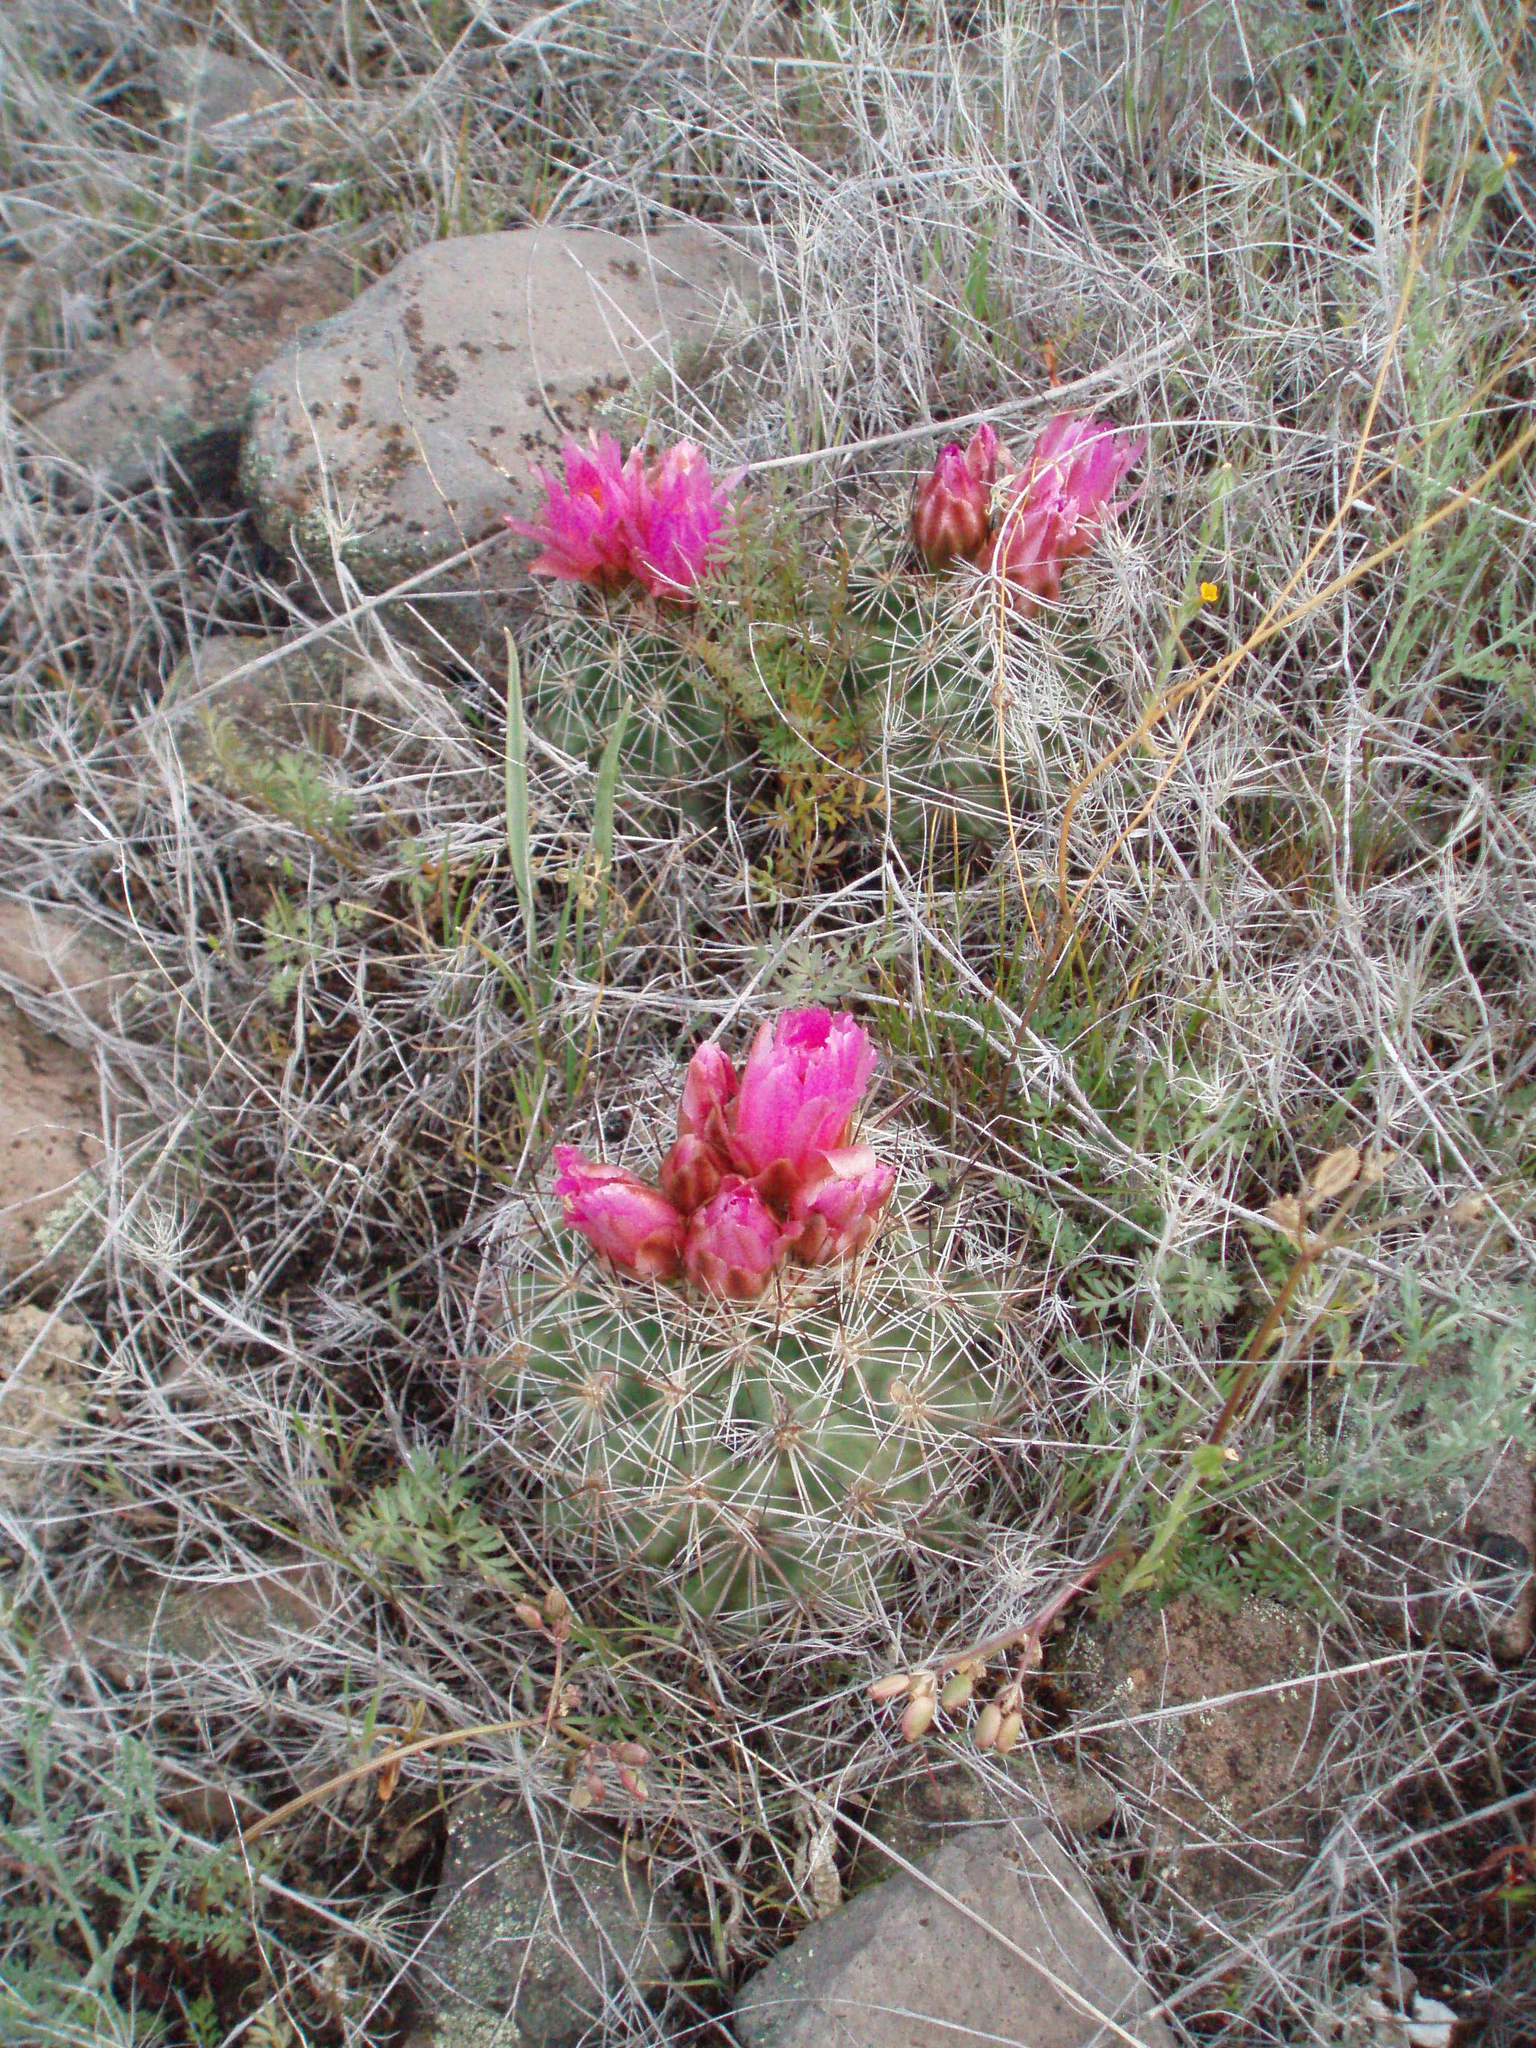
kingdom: Plantae
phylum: Tracheophyta
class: Magnoliopsida
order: Caryophyllales
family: Cactaceae
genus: Pediocactus
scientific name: Pediocactus nigrispinus
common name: Simpson's hedgehog cactus
